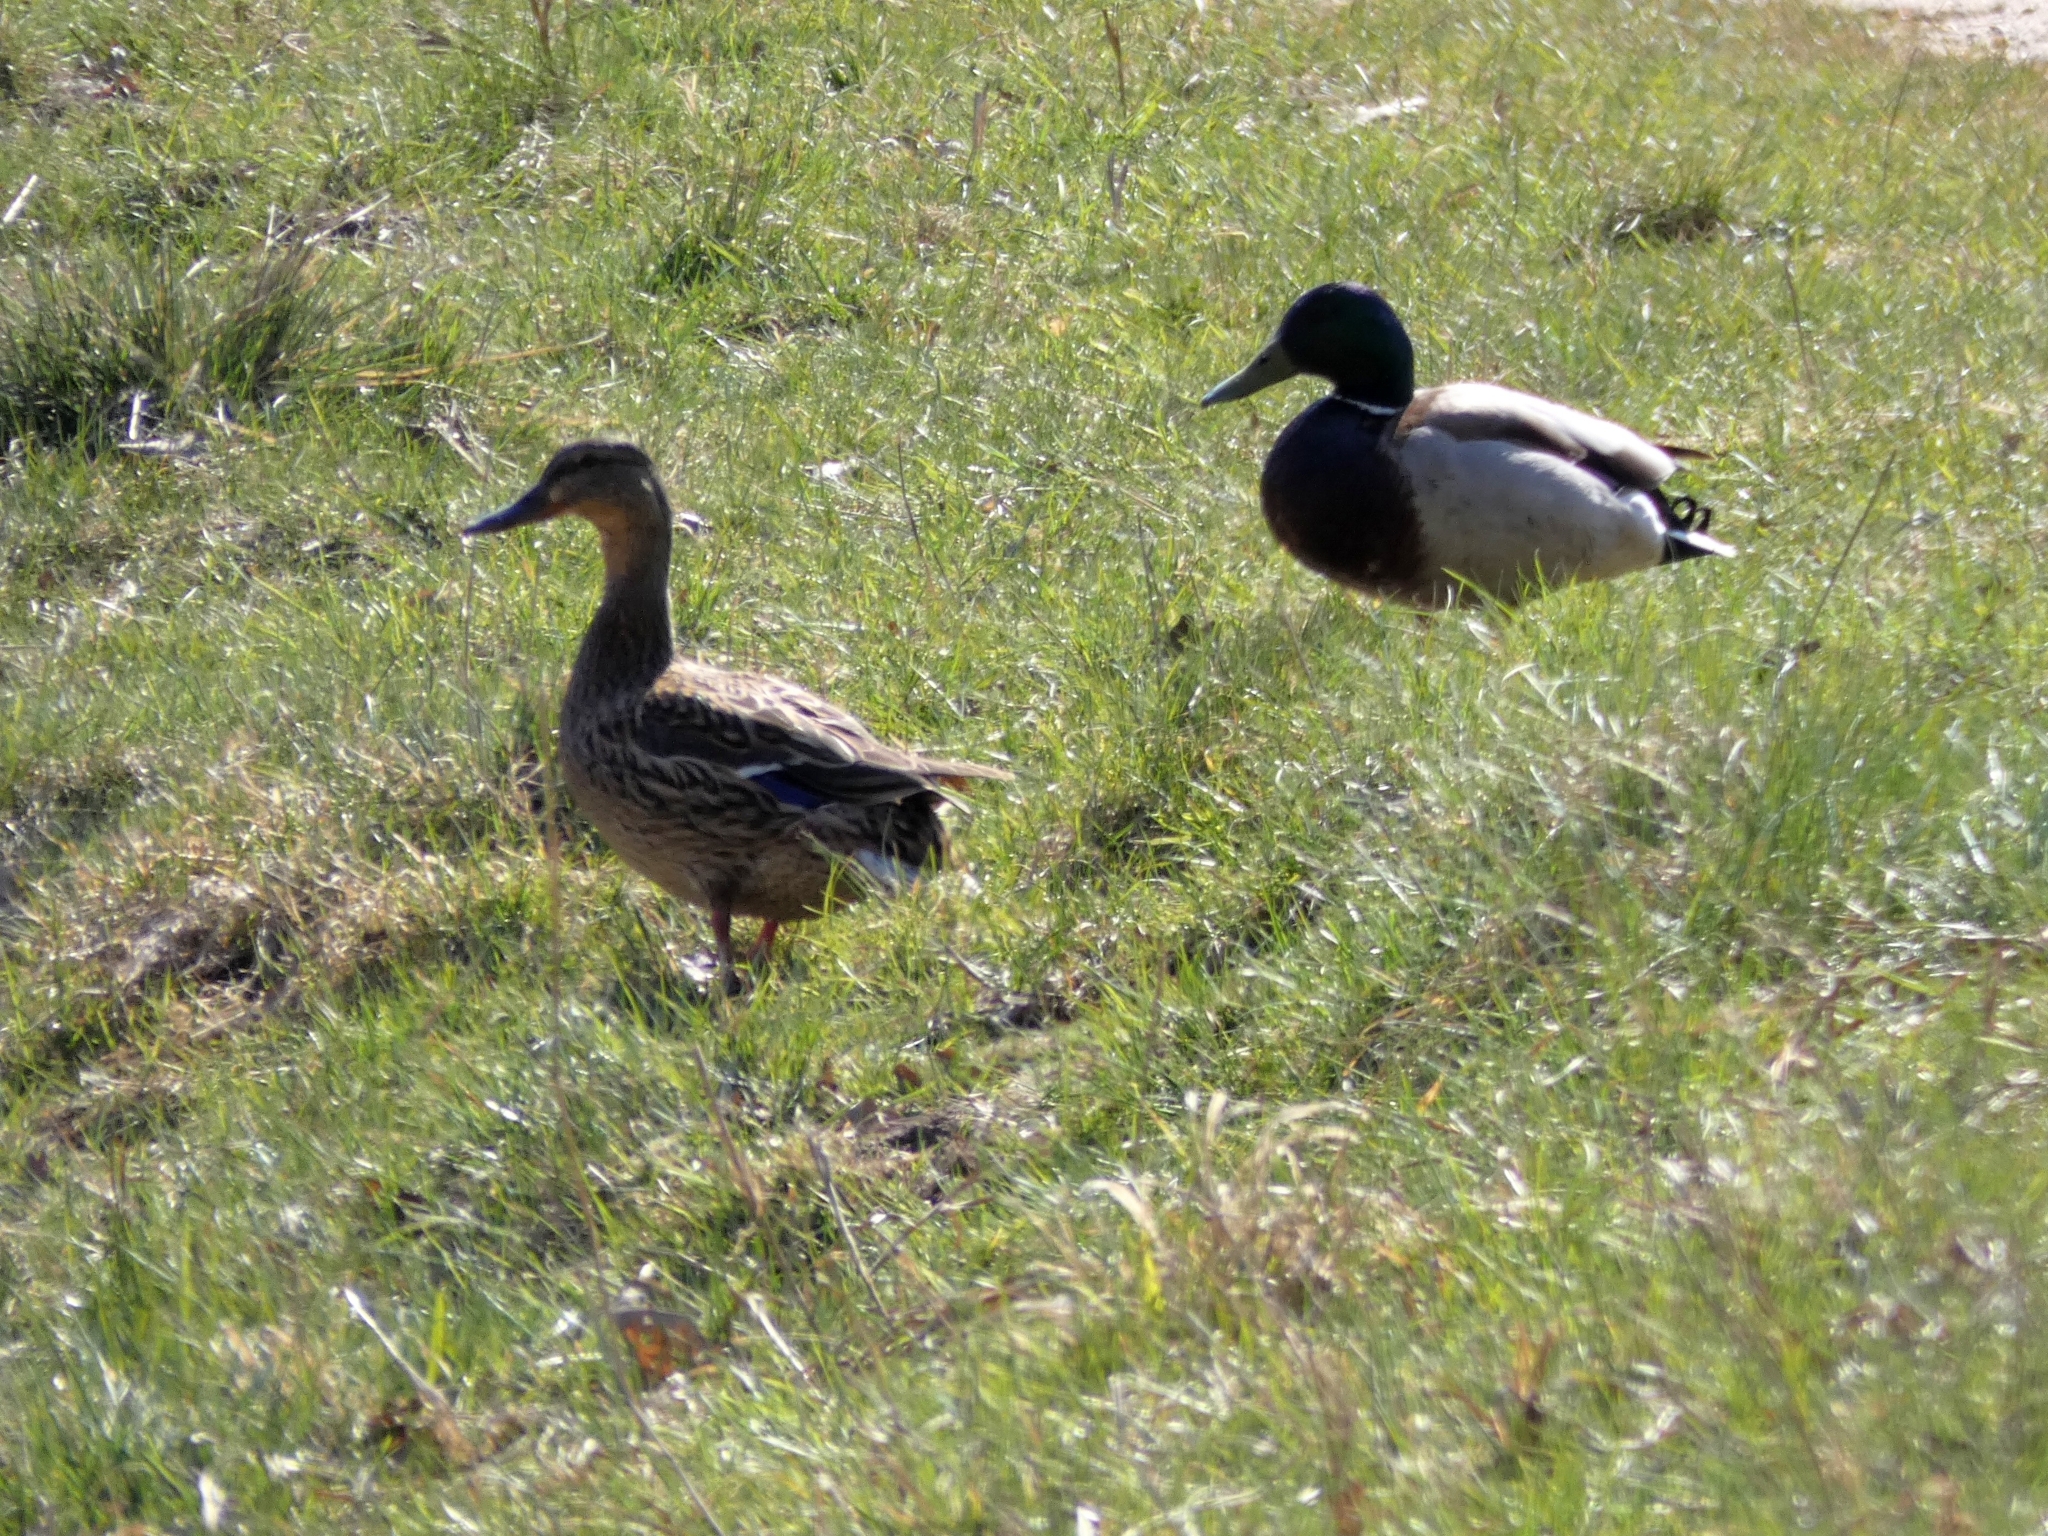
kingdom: Animalia
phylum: Chordata
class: Aves
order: Anseriformes
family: Anatidae
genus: Anas
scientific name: Anas platyrhynchos
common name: Mallard
